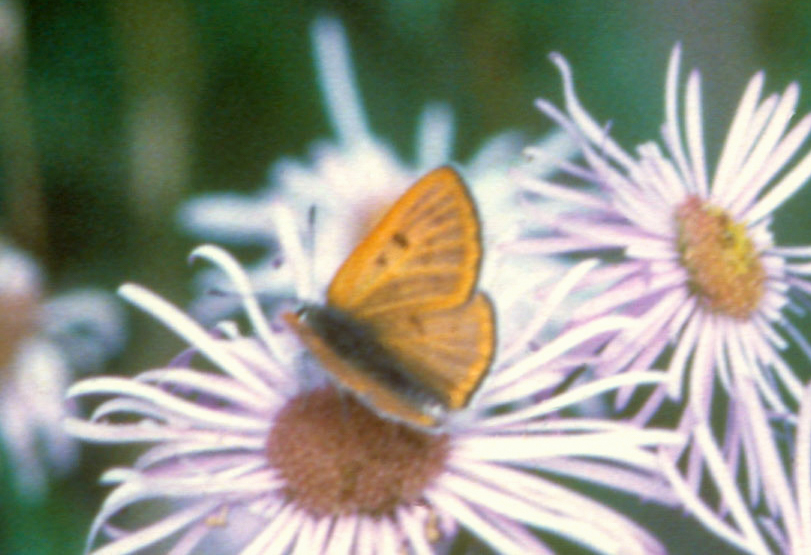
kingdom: Animalia
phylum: Arthropoda
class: Insecta
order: Lepidoptera
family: Lycaenidae
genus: Tharsalea
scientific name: Tharsalea rubidus
